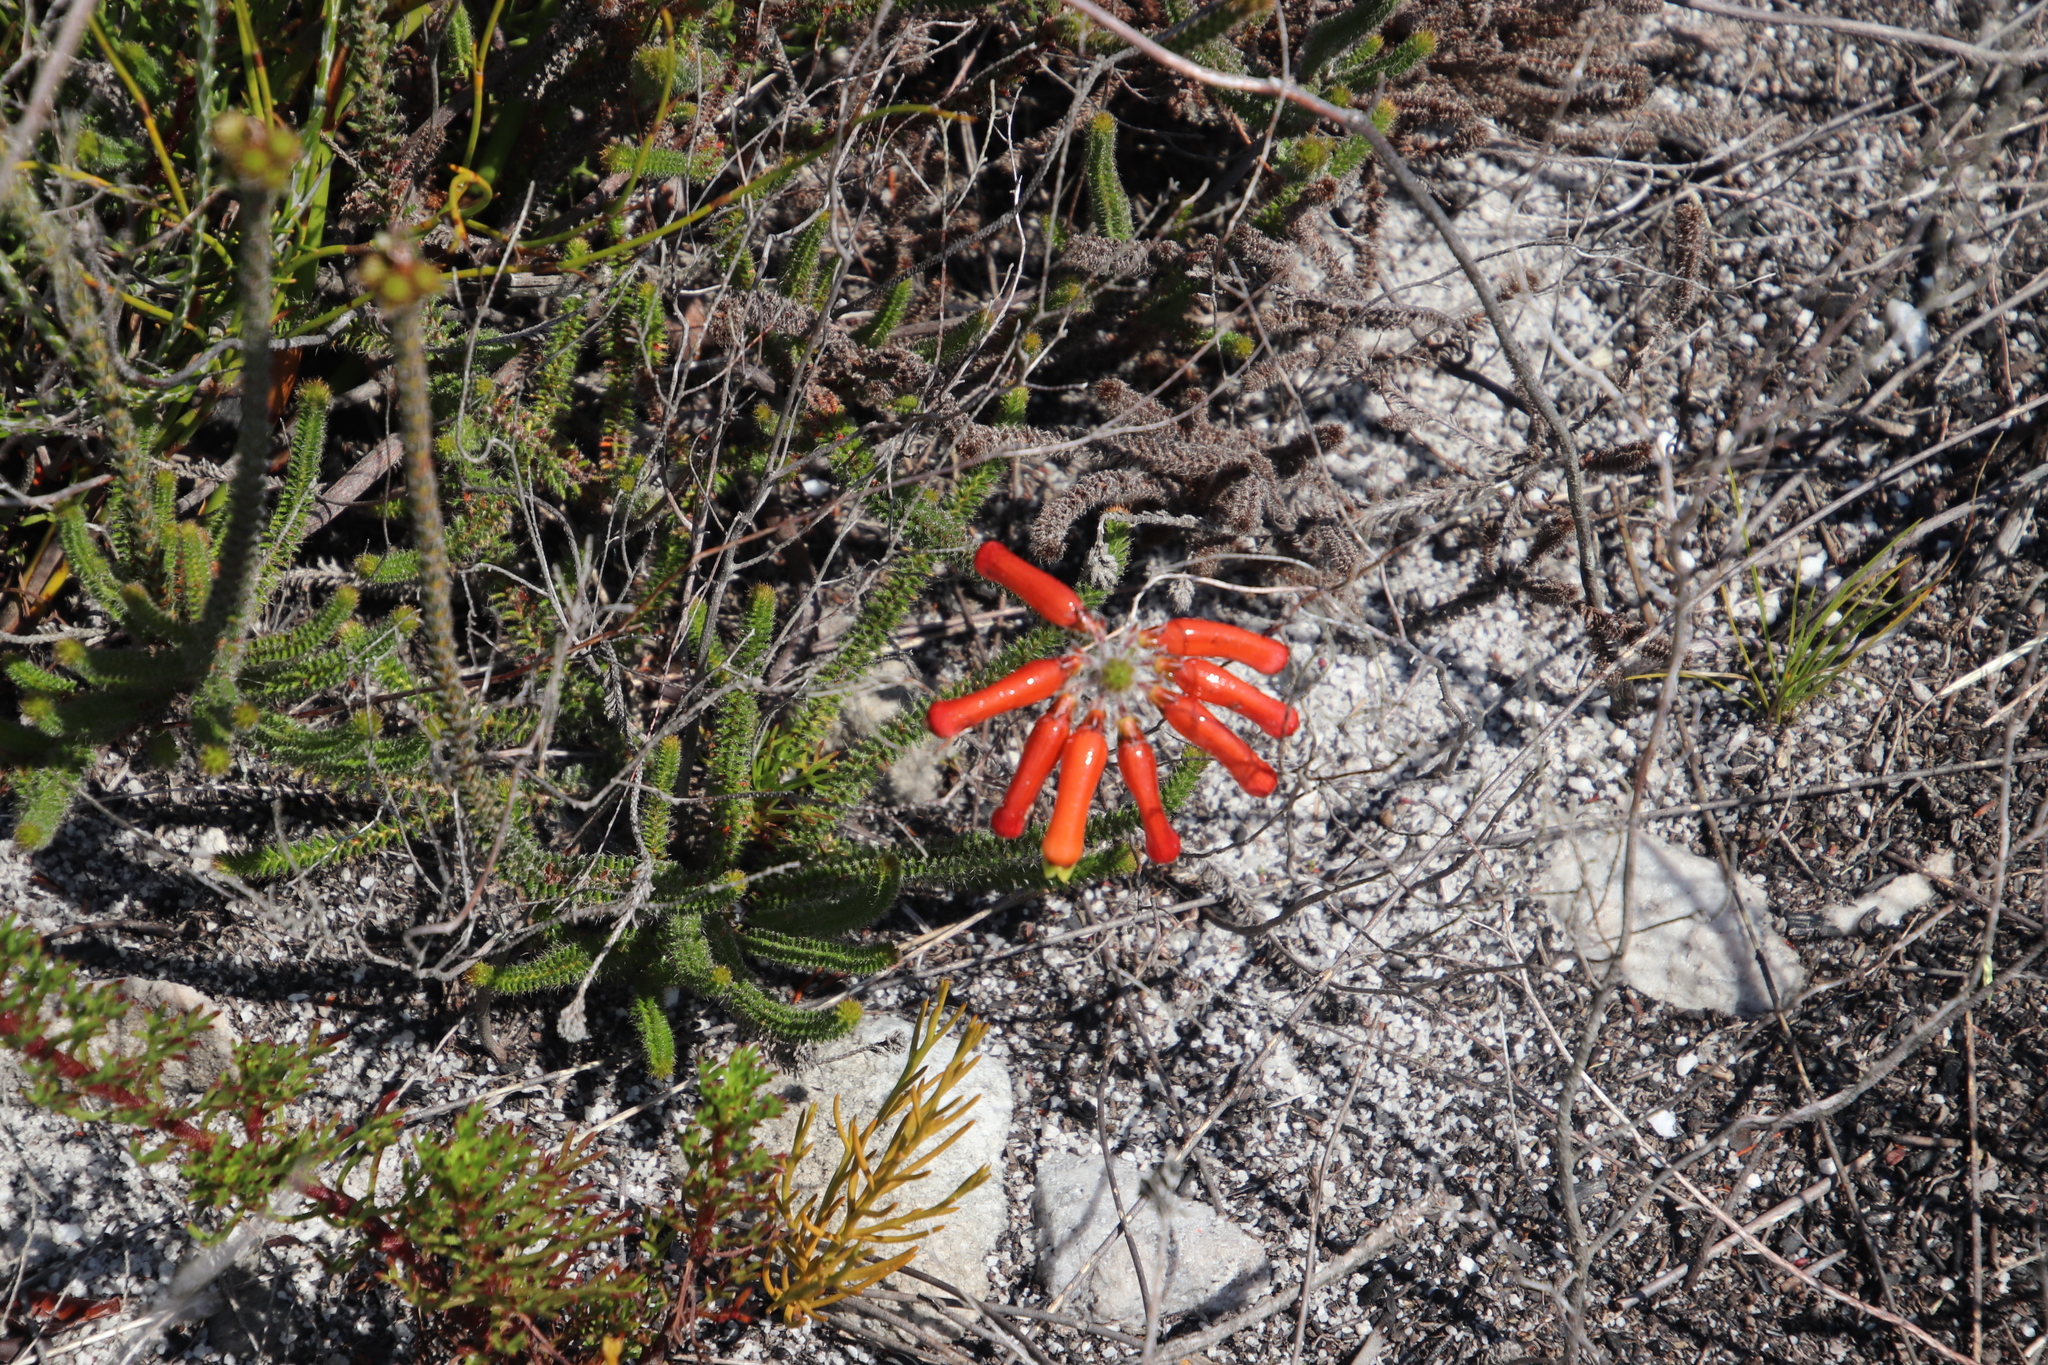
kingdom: Plantae
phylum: Tracheophyta
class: Magnoliopsida
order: Ericales
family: Ericaceae
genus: Erica
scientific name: Erica massonii
